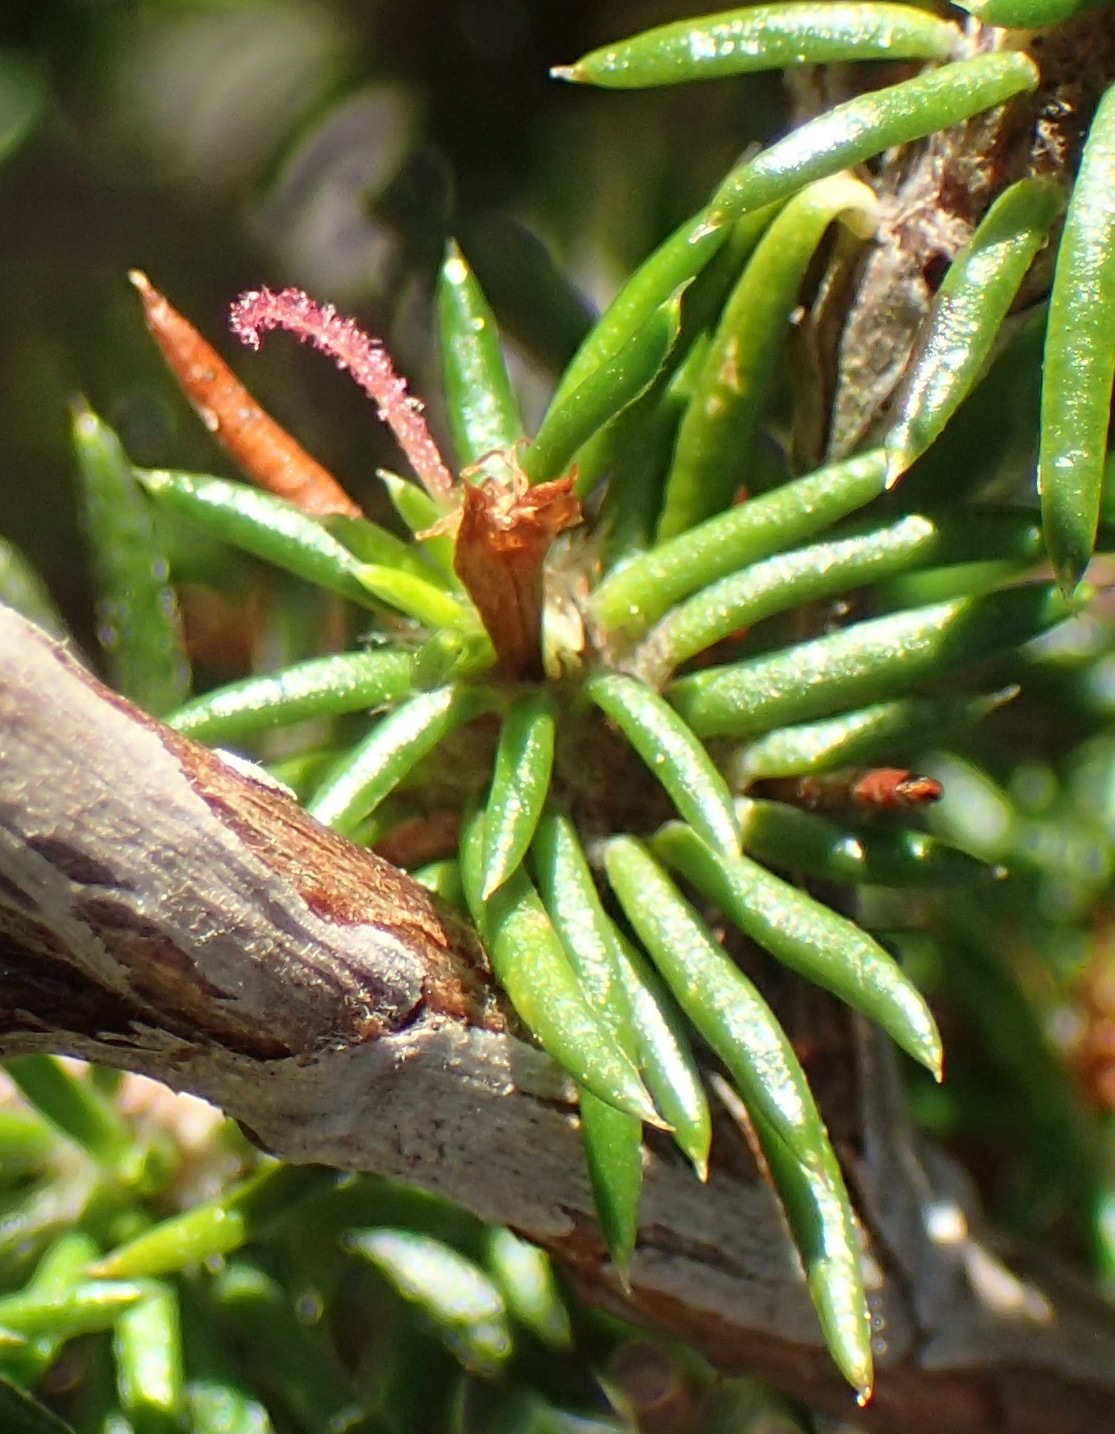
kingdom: Plantae
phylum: Tracheophyta
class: Magnoliopsida
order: Rosales
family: Rosaceae
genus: Cliffortia
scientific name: Cliffortia stricta
